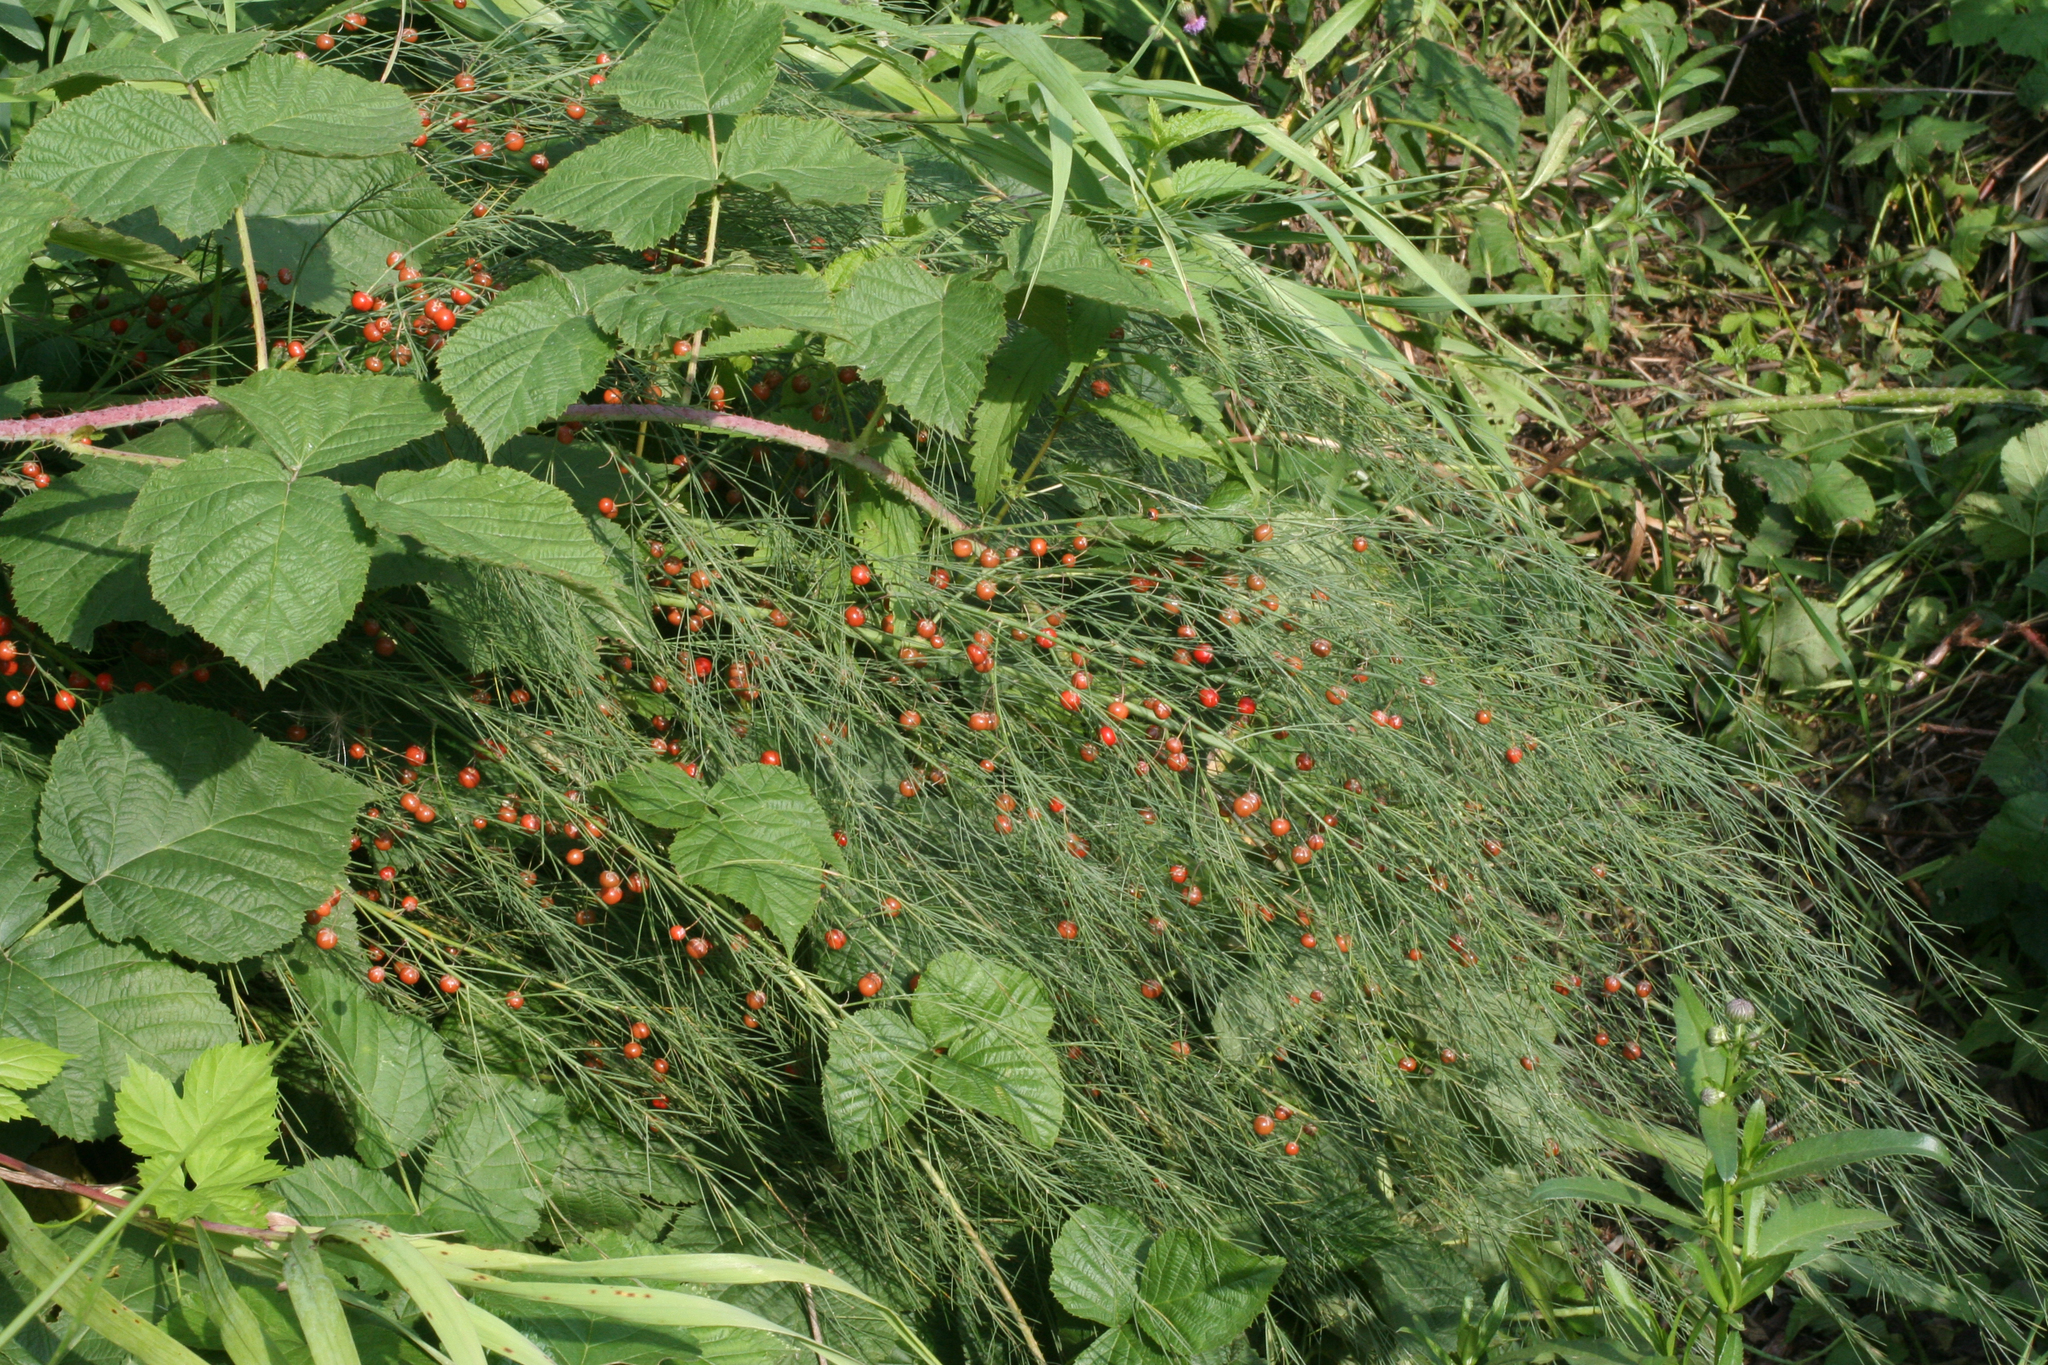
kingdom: Plantae
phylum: Tracheophyta
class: Liliopsida
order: Asparagales
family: Asparagaceae
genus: Asparagus
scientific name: Asparagus officinalis
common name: Garden asparagus
